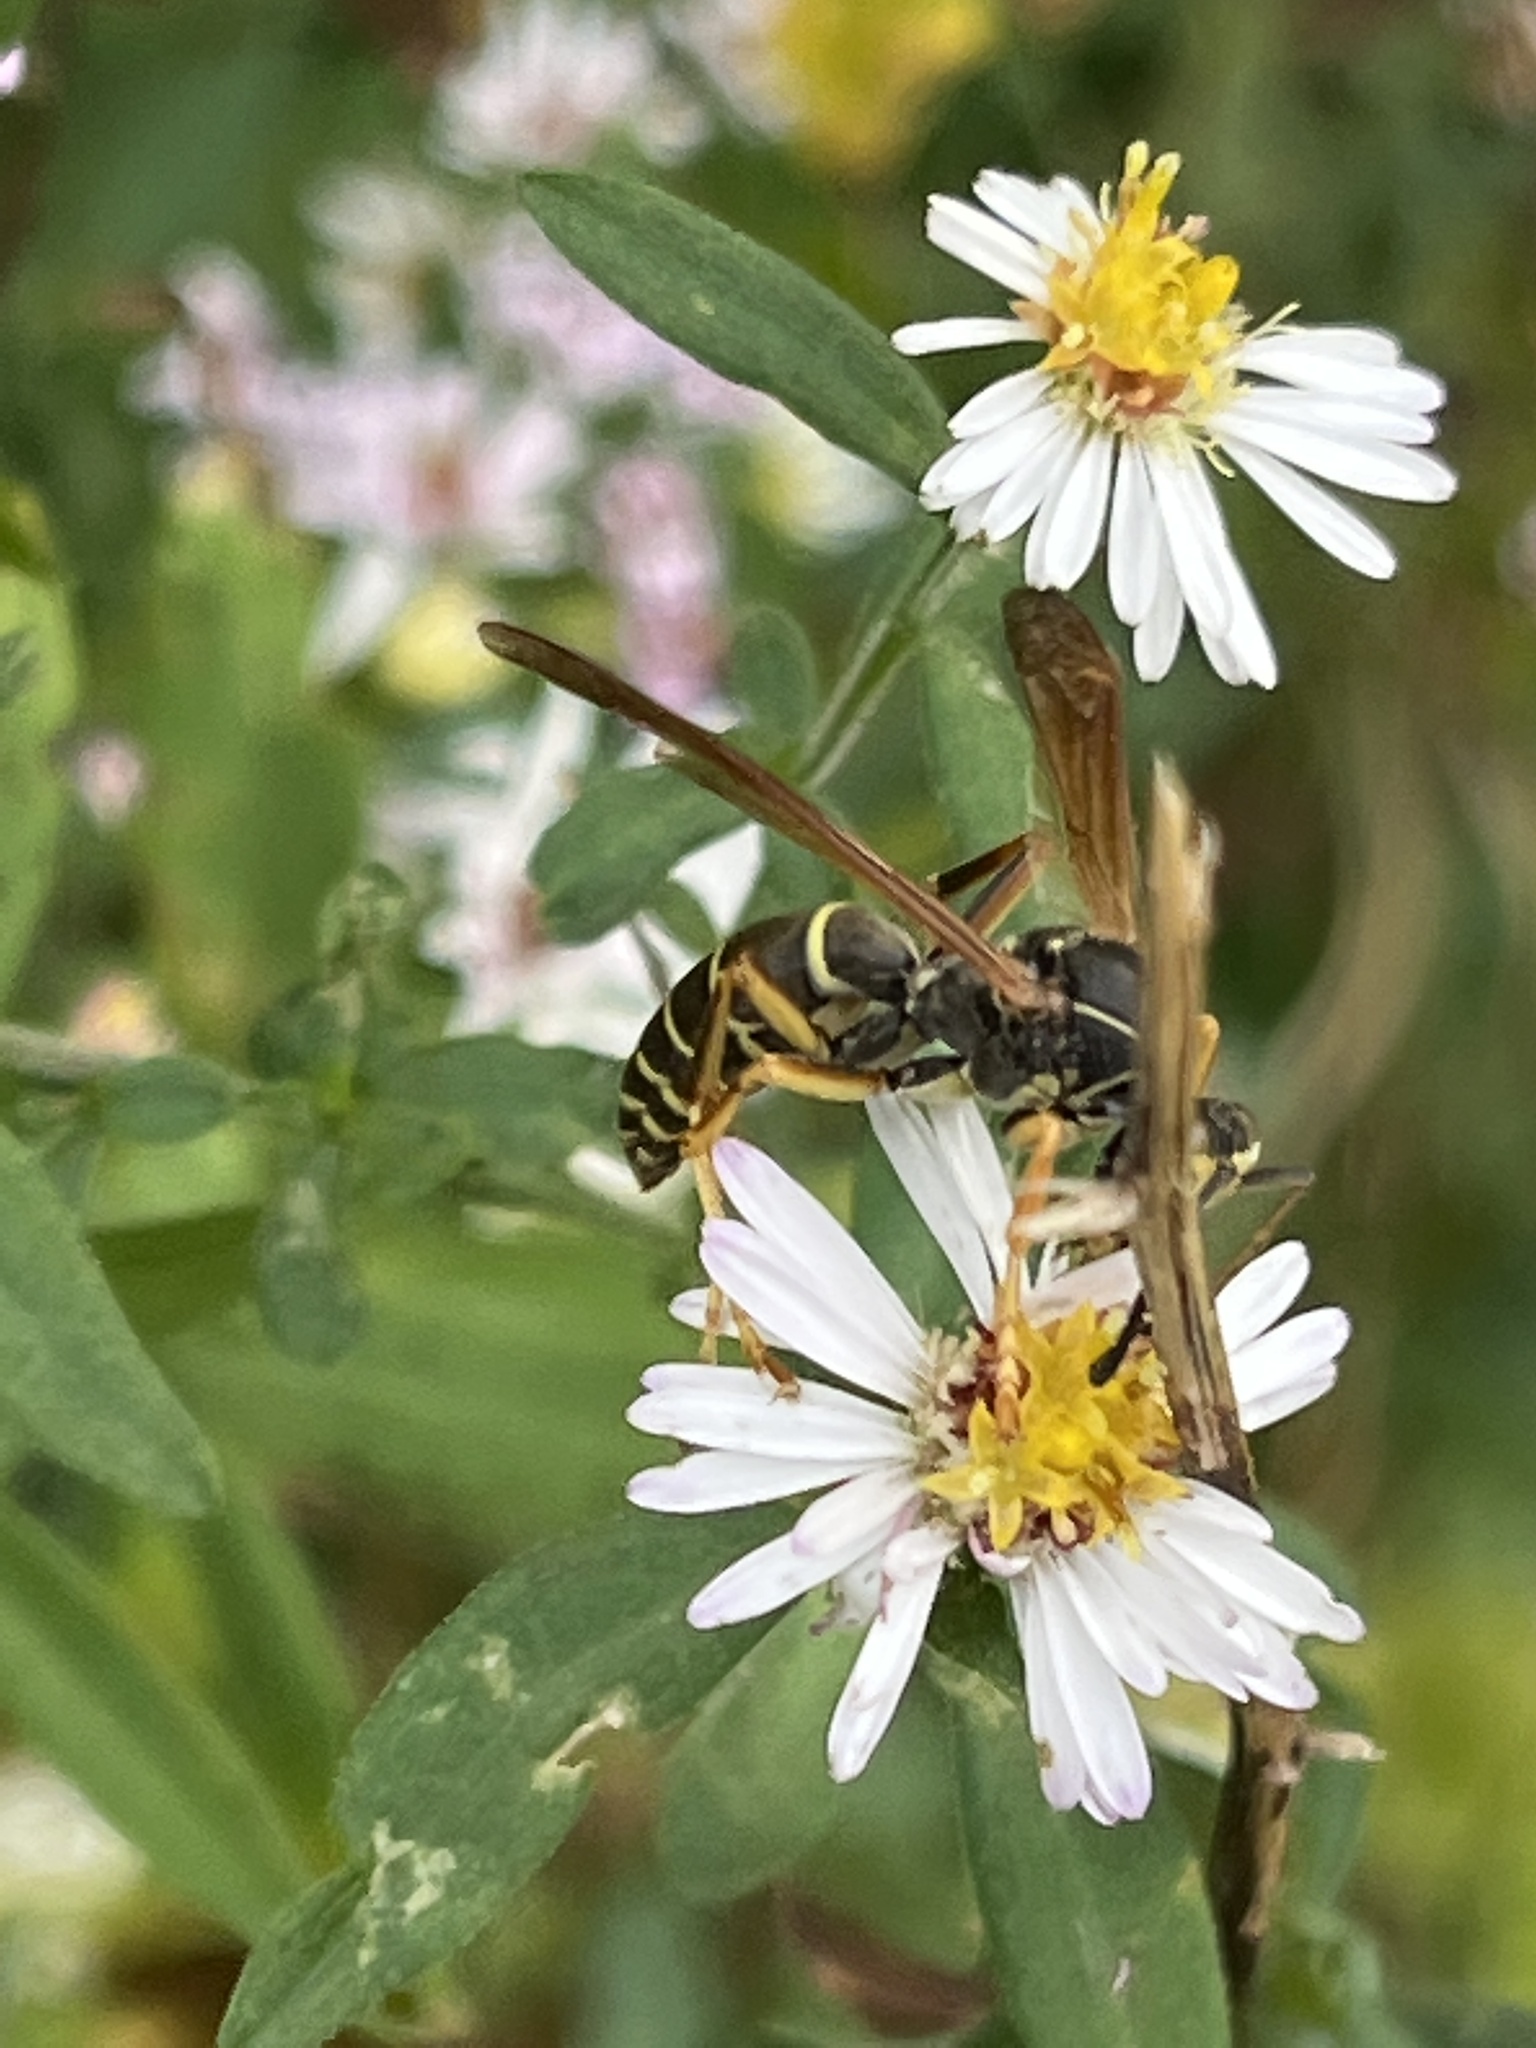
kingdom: Animalia
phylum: Arthropoda
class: Insecta
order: Hymenoptera
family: Eumenidae
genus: Polistes
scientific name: Polistes fuscatus
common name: Dark paper wasp
